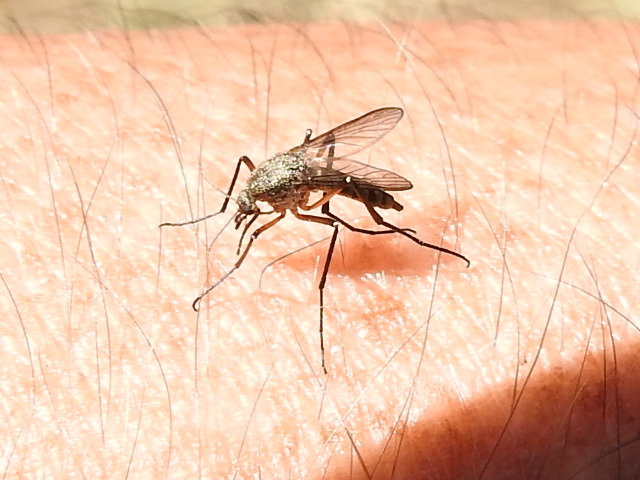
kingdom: Animalia
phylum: Arthropoda
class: Insecta
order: Diptera
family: Culicidae
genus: Psorophora
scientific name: Psorophora cyanescens
